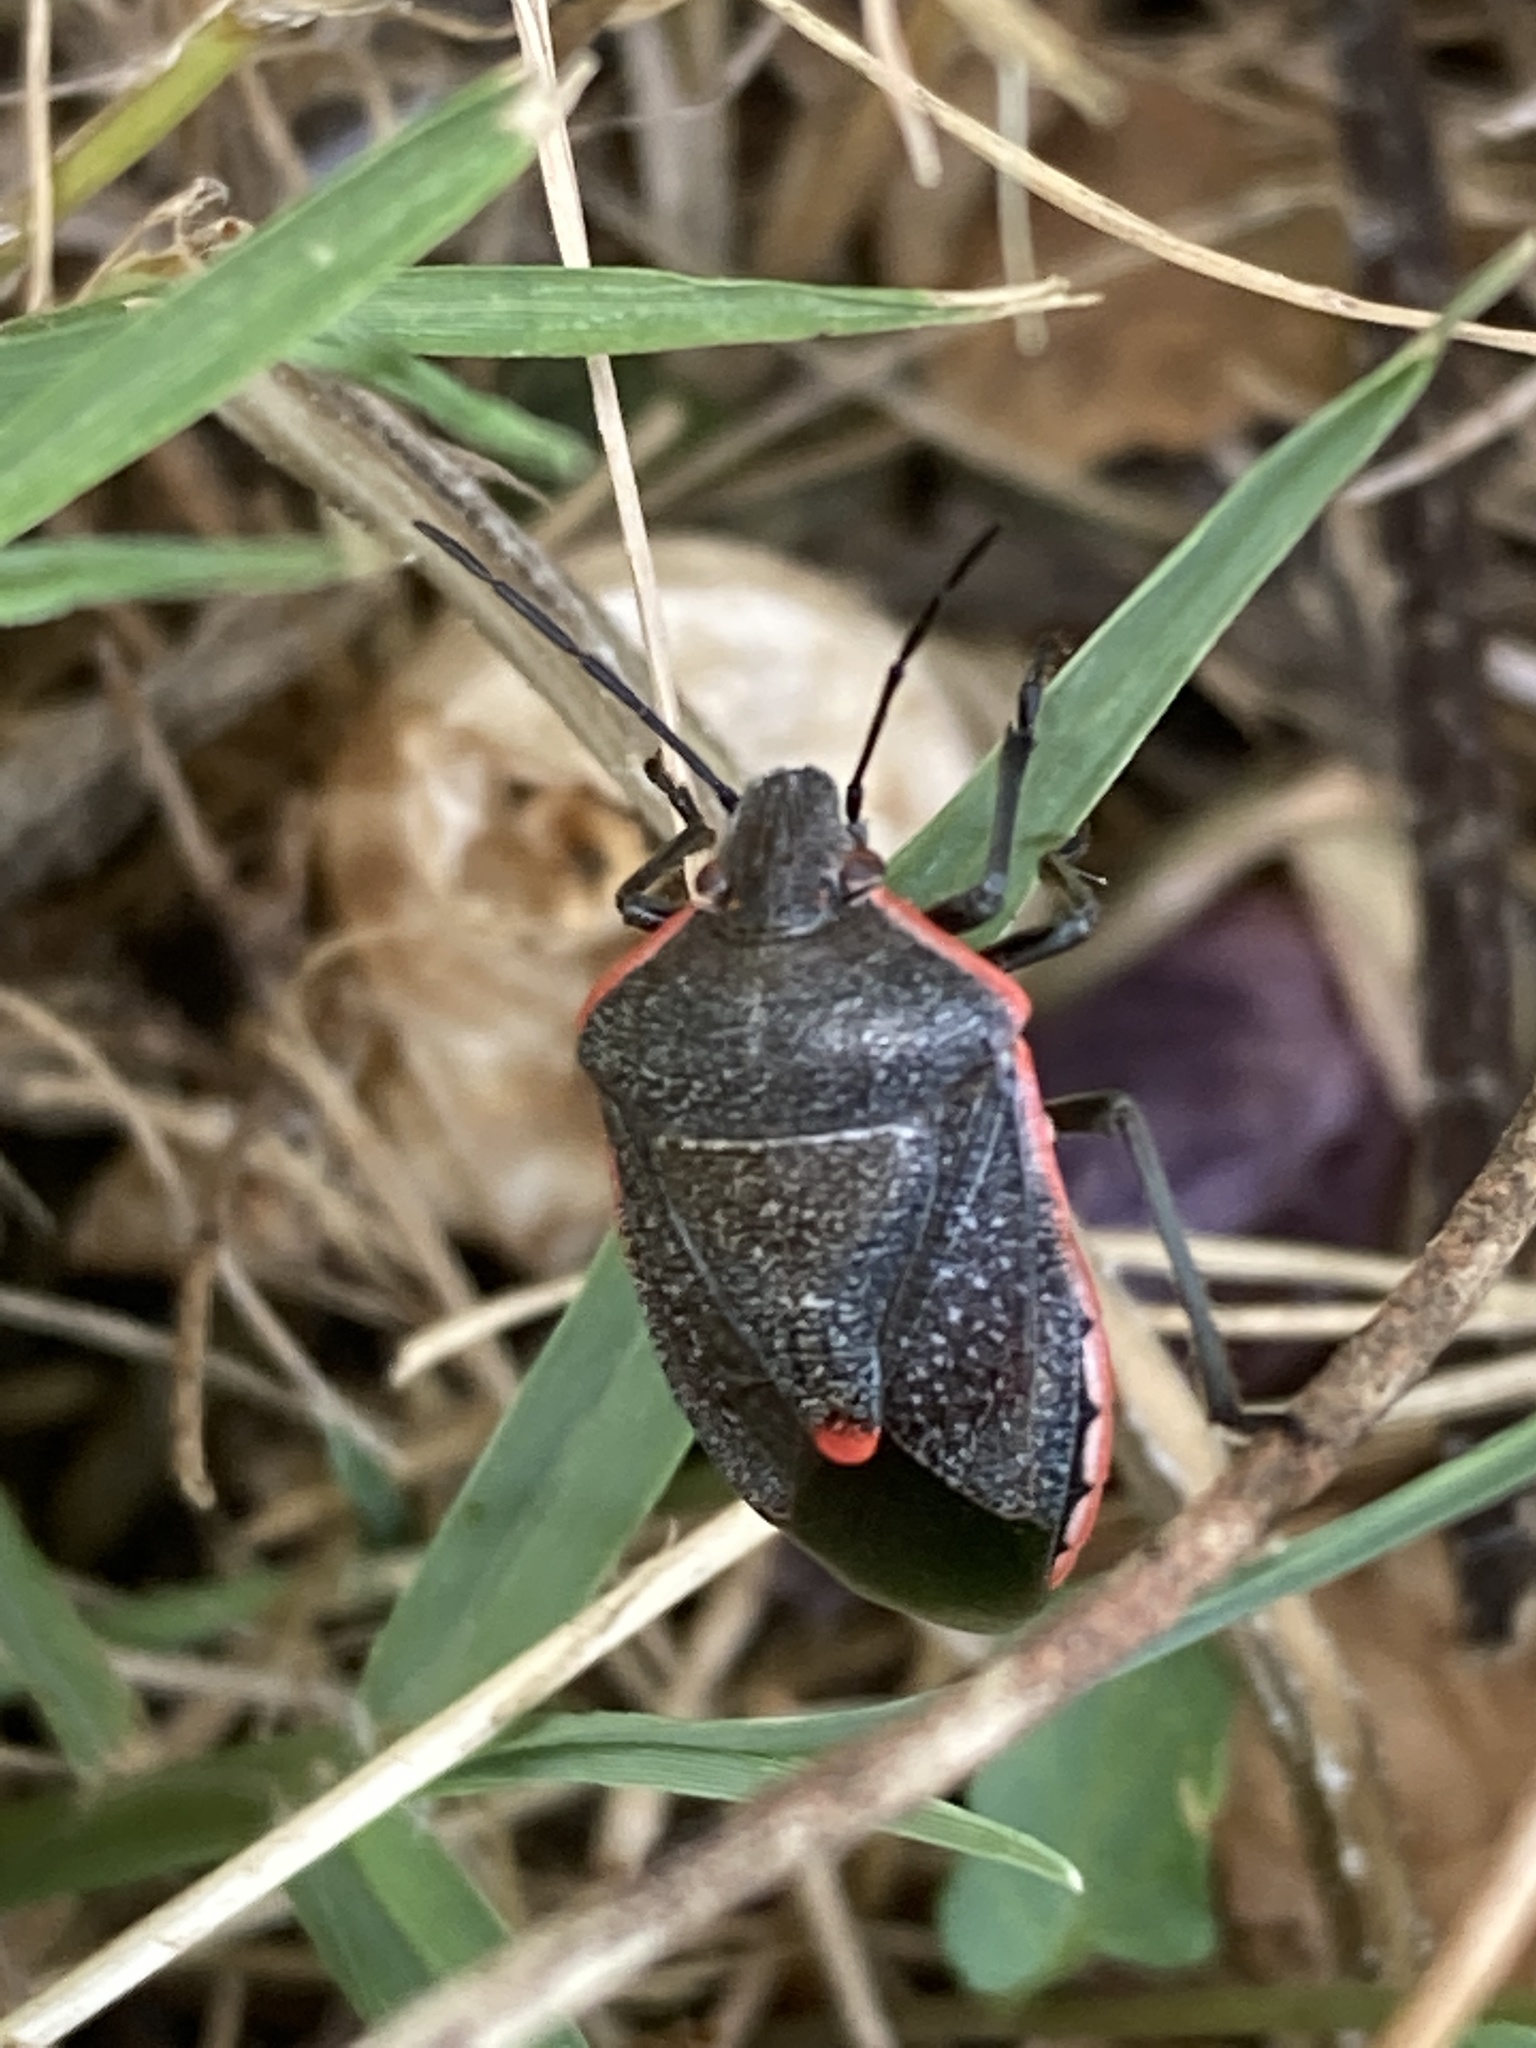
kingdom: Animalia
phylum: Arthropoda
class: Insecta
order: Hemiptera
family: Pentatomidae
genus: Chlorochroa
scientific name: Chlorochroa ligata
